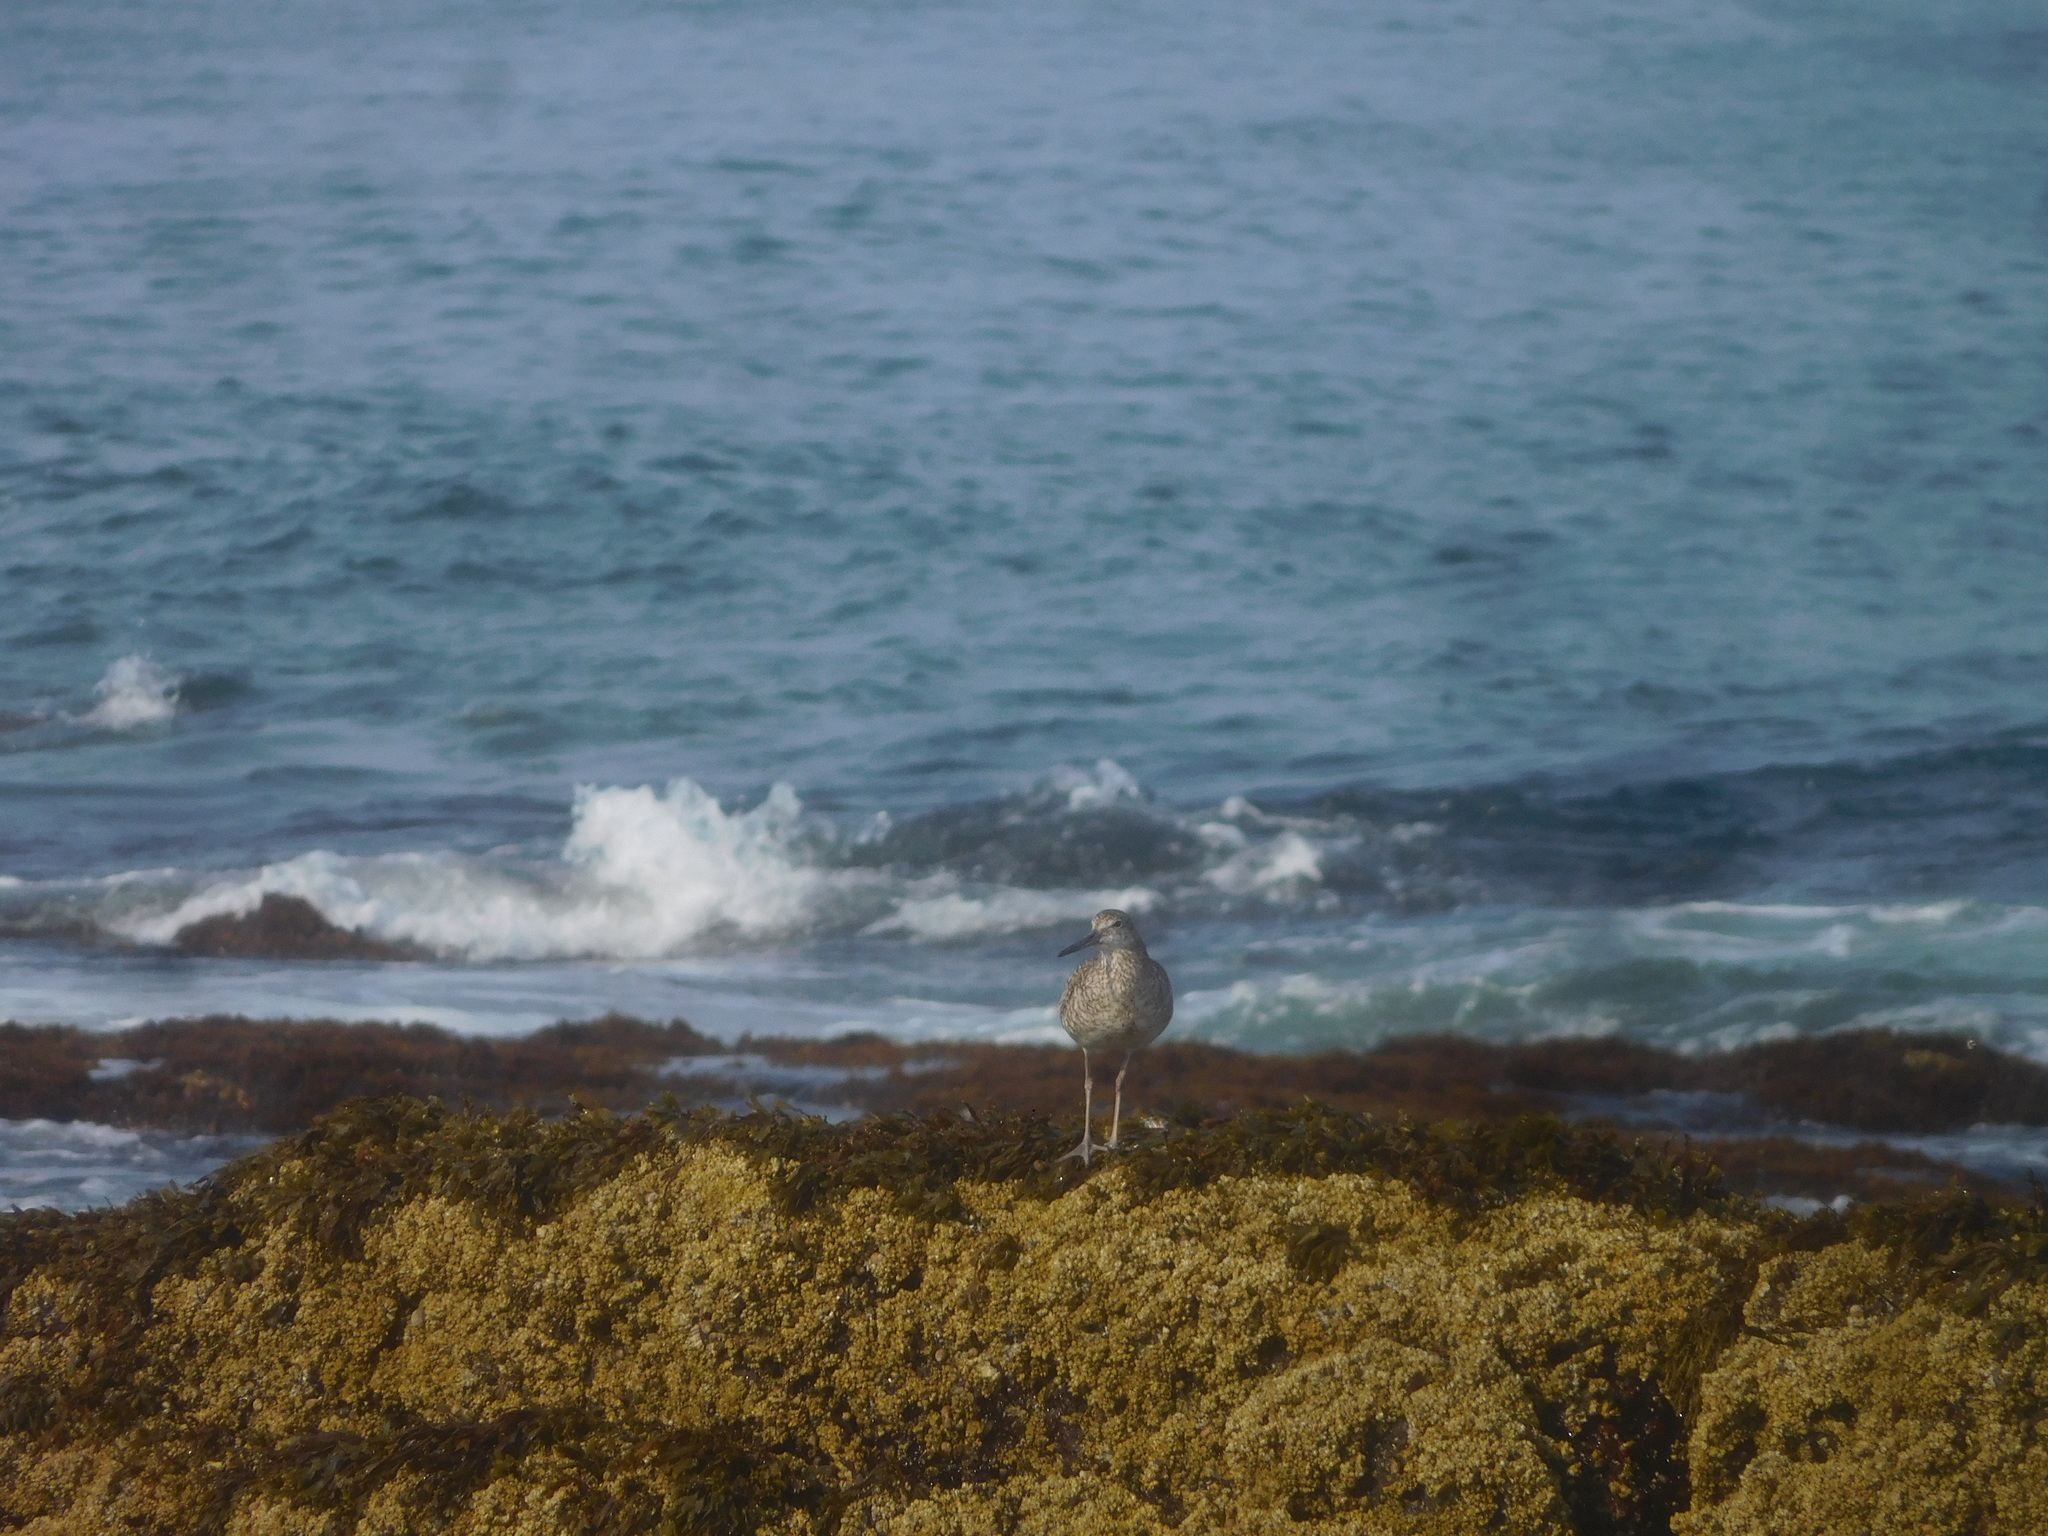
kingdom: Animalia
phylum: Chordata
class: Aves
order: Charadriiformes
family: Scolopacidae
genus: Tringa
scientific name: Tringa semipalmata
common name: Willet
